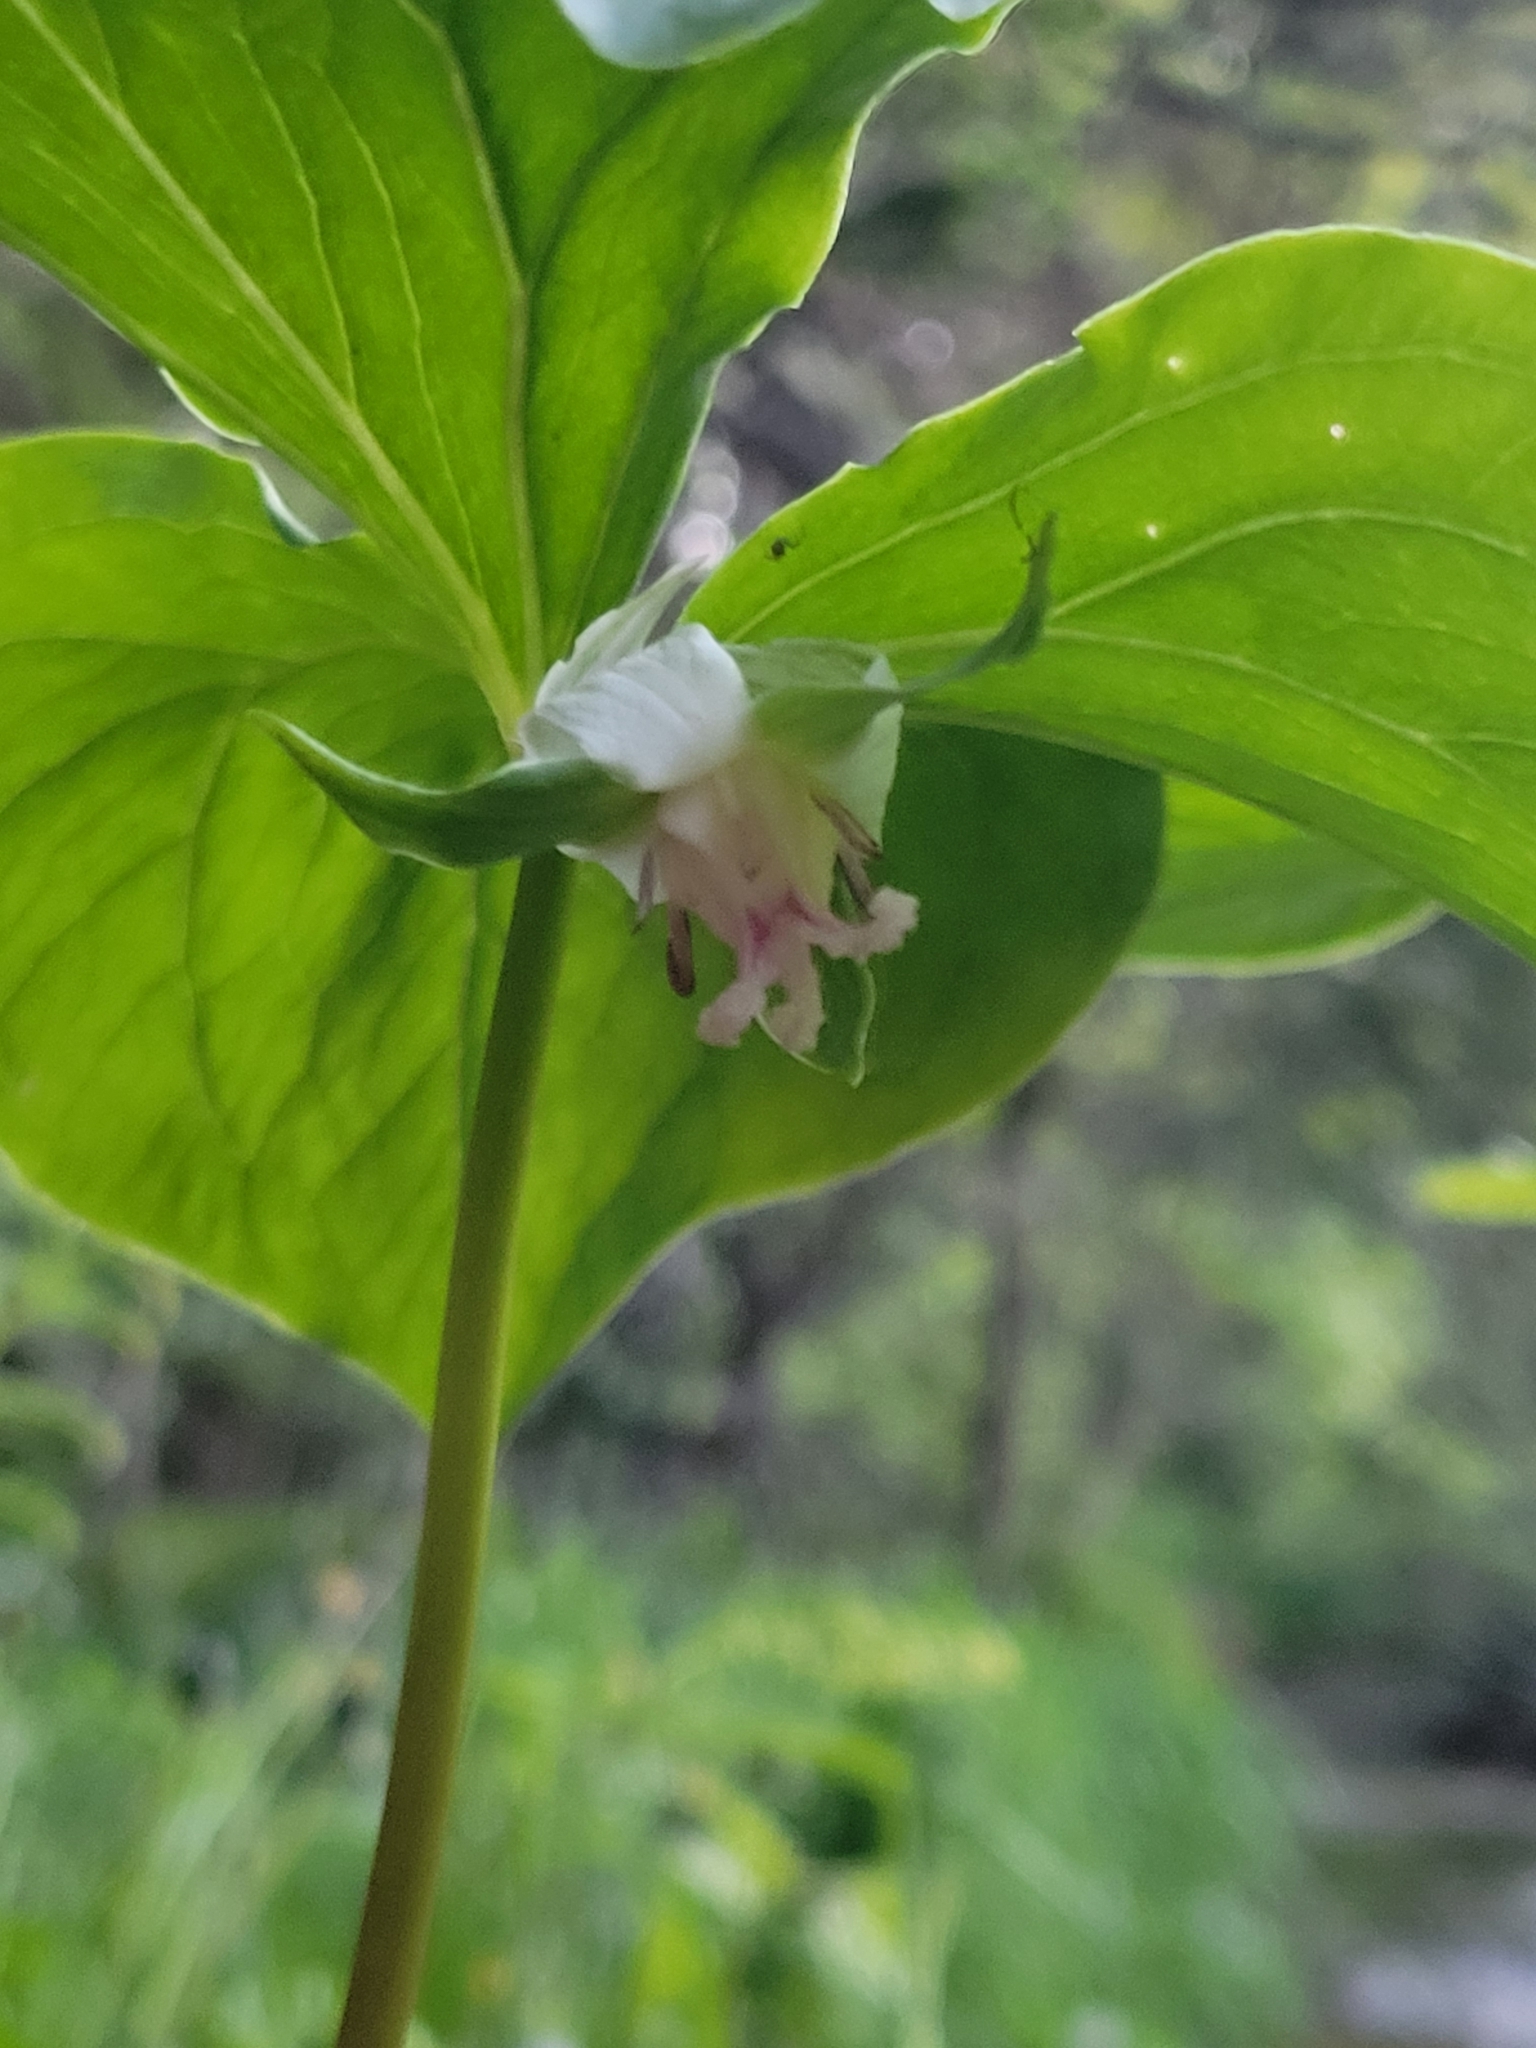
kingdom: Plantae
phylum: Tracheophyta
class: Liliopsida
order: Liliales
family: Melanthiaceae
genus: Trillium
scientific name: Trillium cernuum
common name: Nodding trillium
